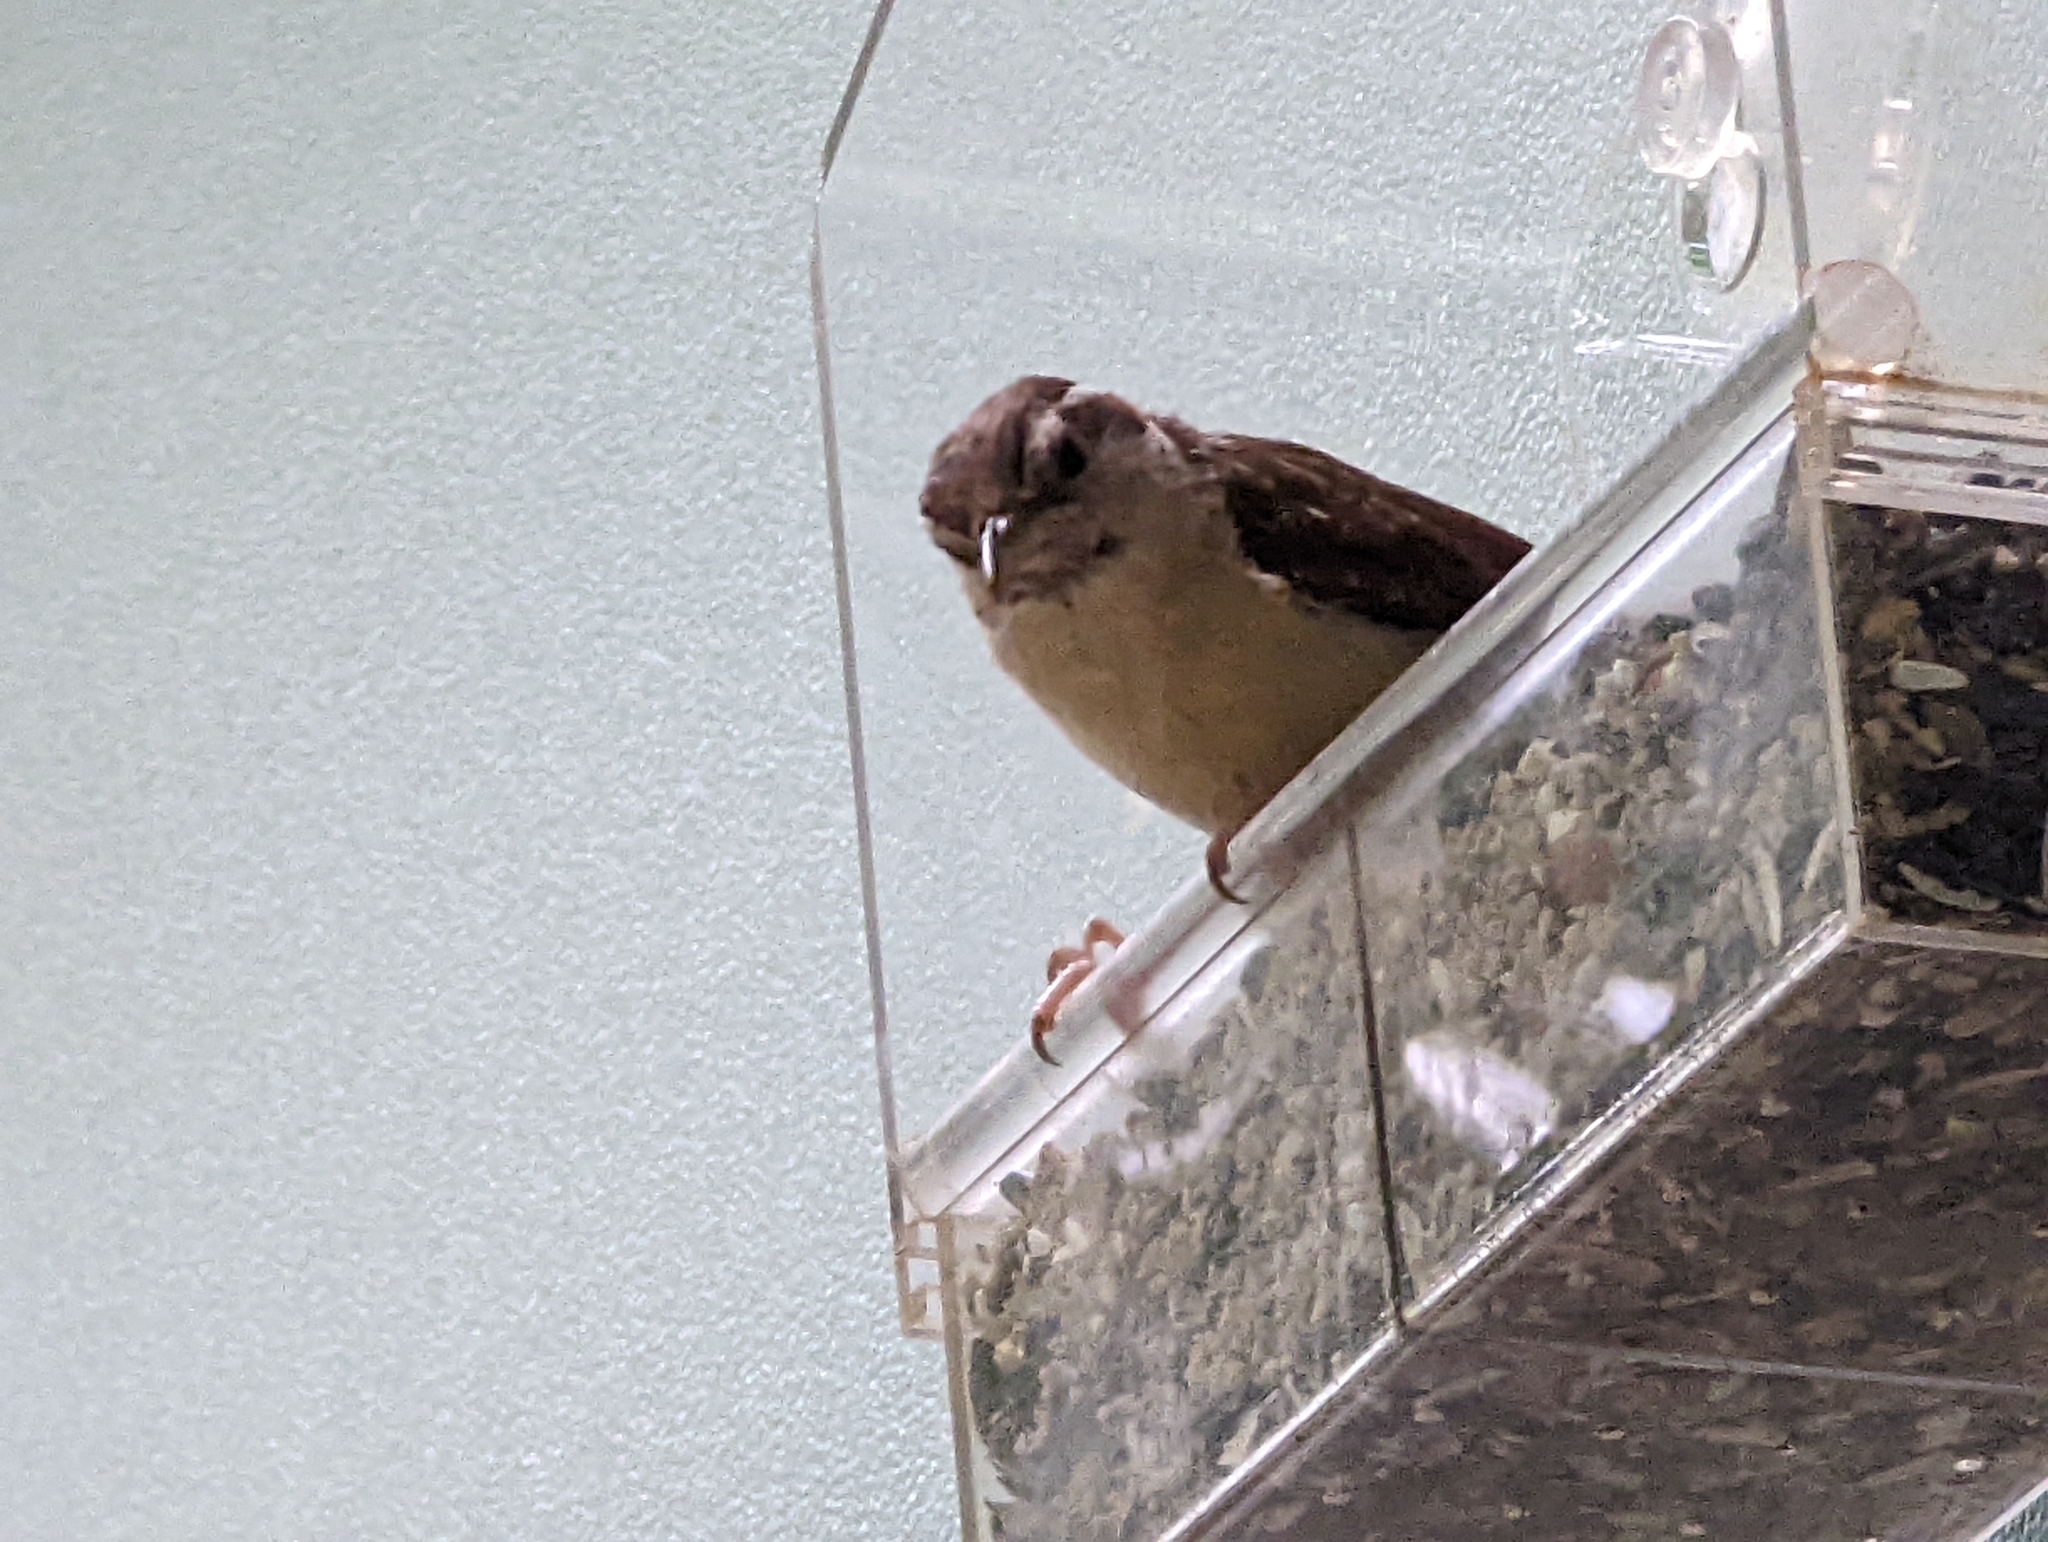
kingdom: Animalia
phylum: Chordata
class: Aves
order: Passeriformes
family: Troglodytidae
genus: Thryothorus
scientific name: Thryothorus ludovicianus
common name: Carolina wren
